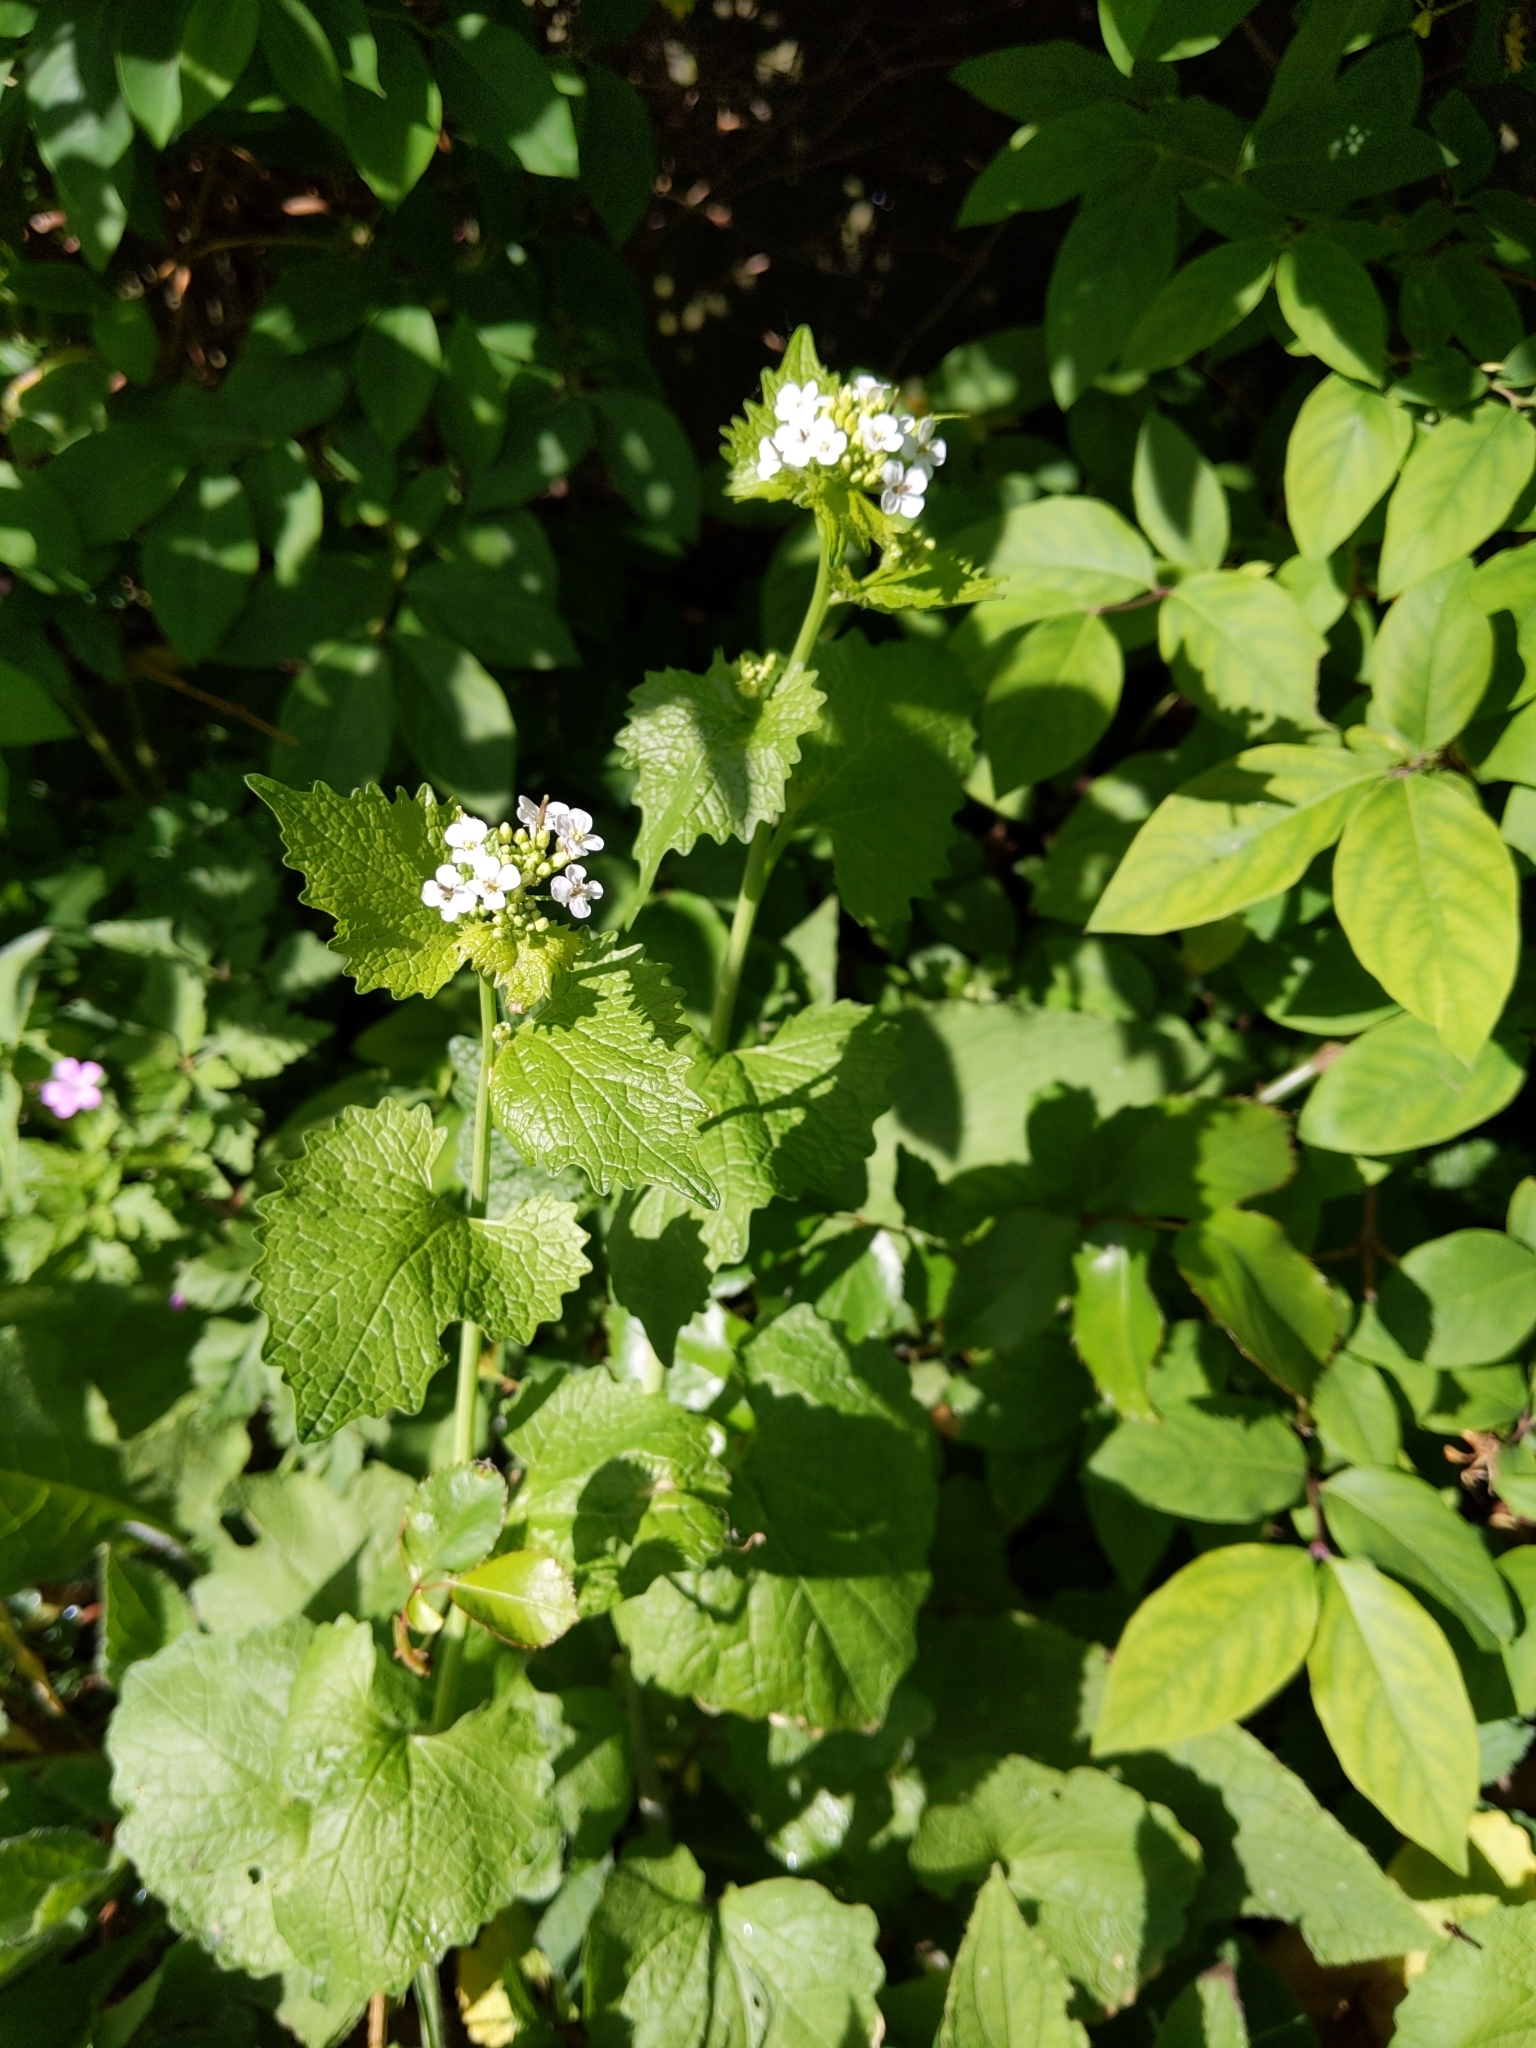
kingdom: Plantae
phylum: Tracheophyta
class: Magnoliopsida
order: Brassicales
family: Brassicaceae
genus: Alliaria
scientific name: Alliaria petiolata
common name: Garlic mustard
